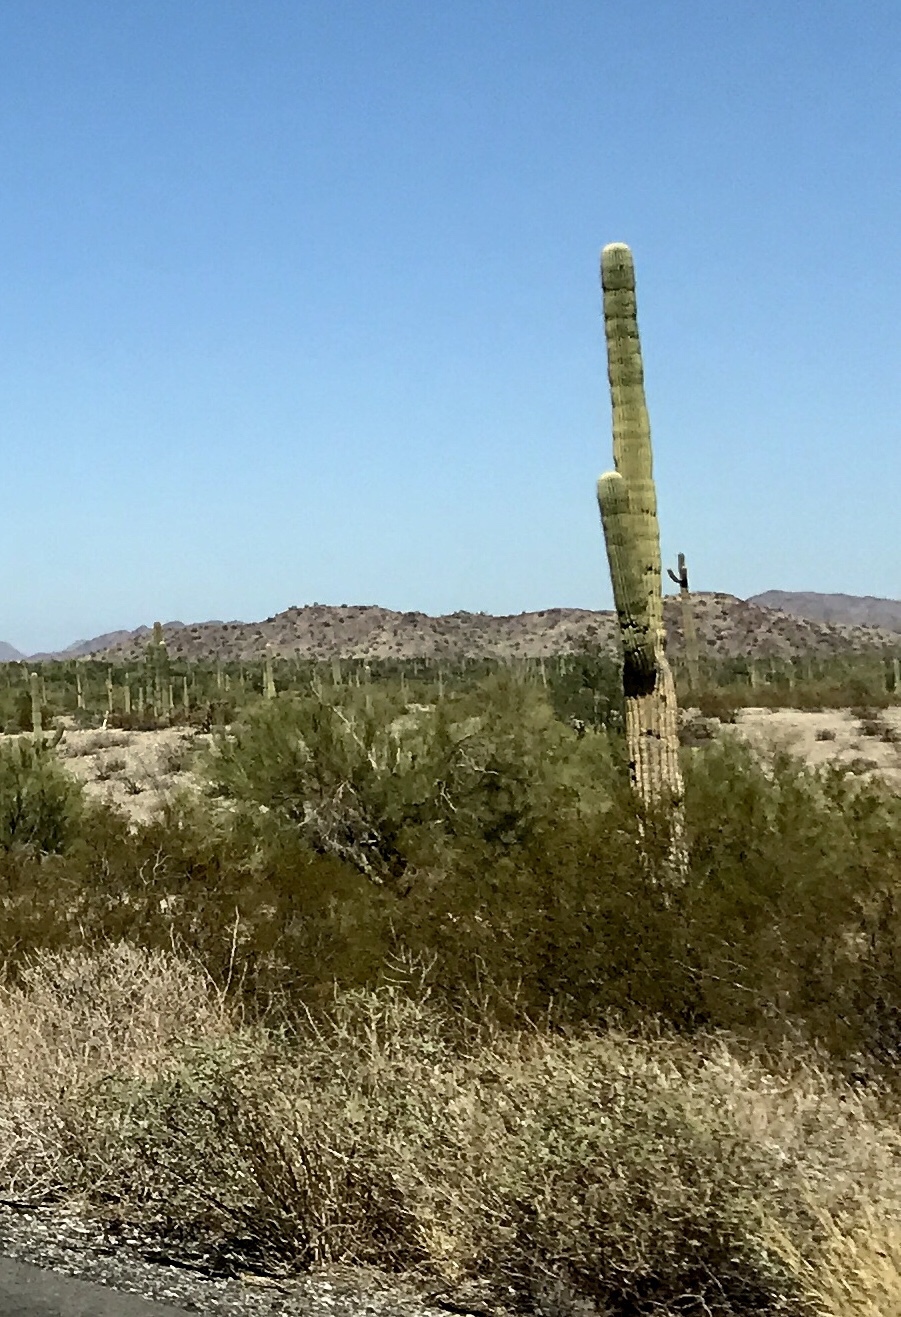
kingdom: Plantae
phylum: Tracheophyta
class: Magnoliopsida
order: Caryophyllales
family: Cactaceae
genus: Carnegiea
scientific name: Carnegiea gigantea
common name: Saguaro
